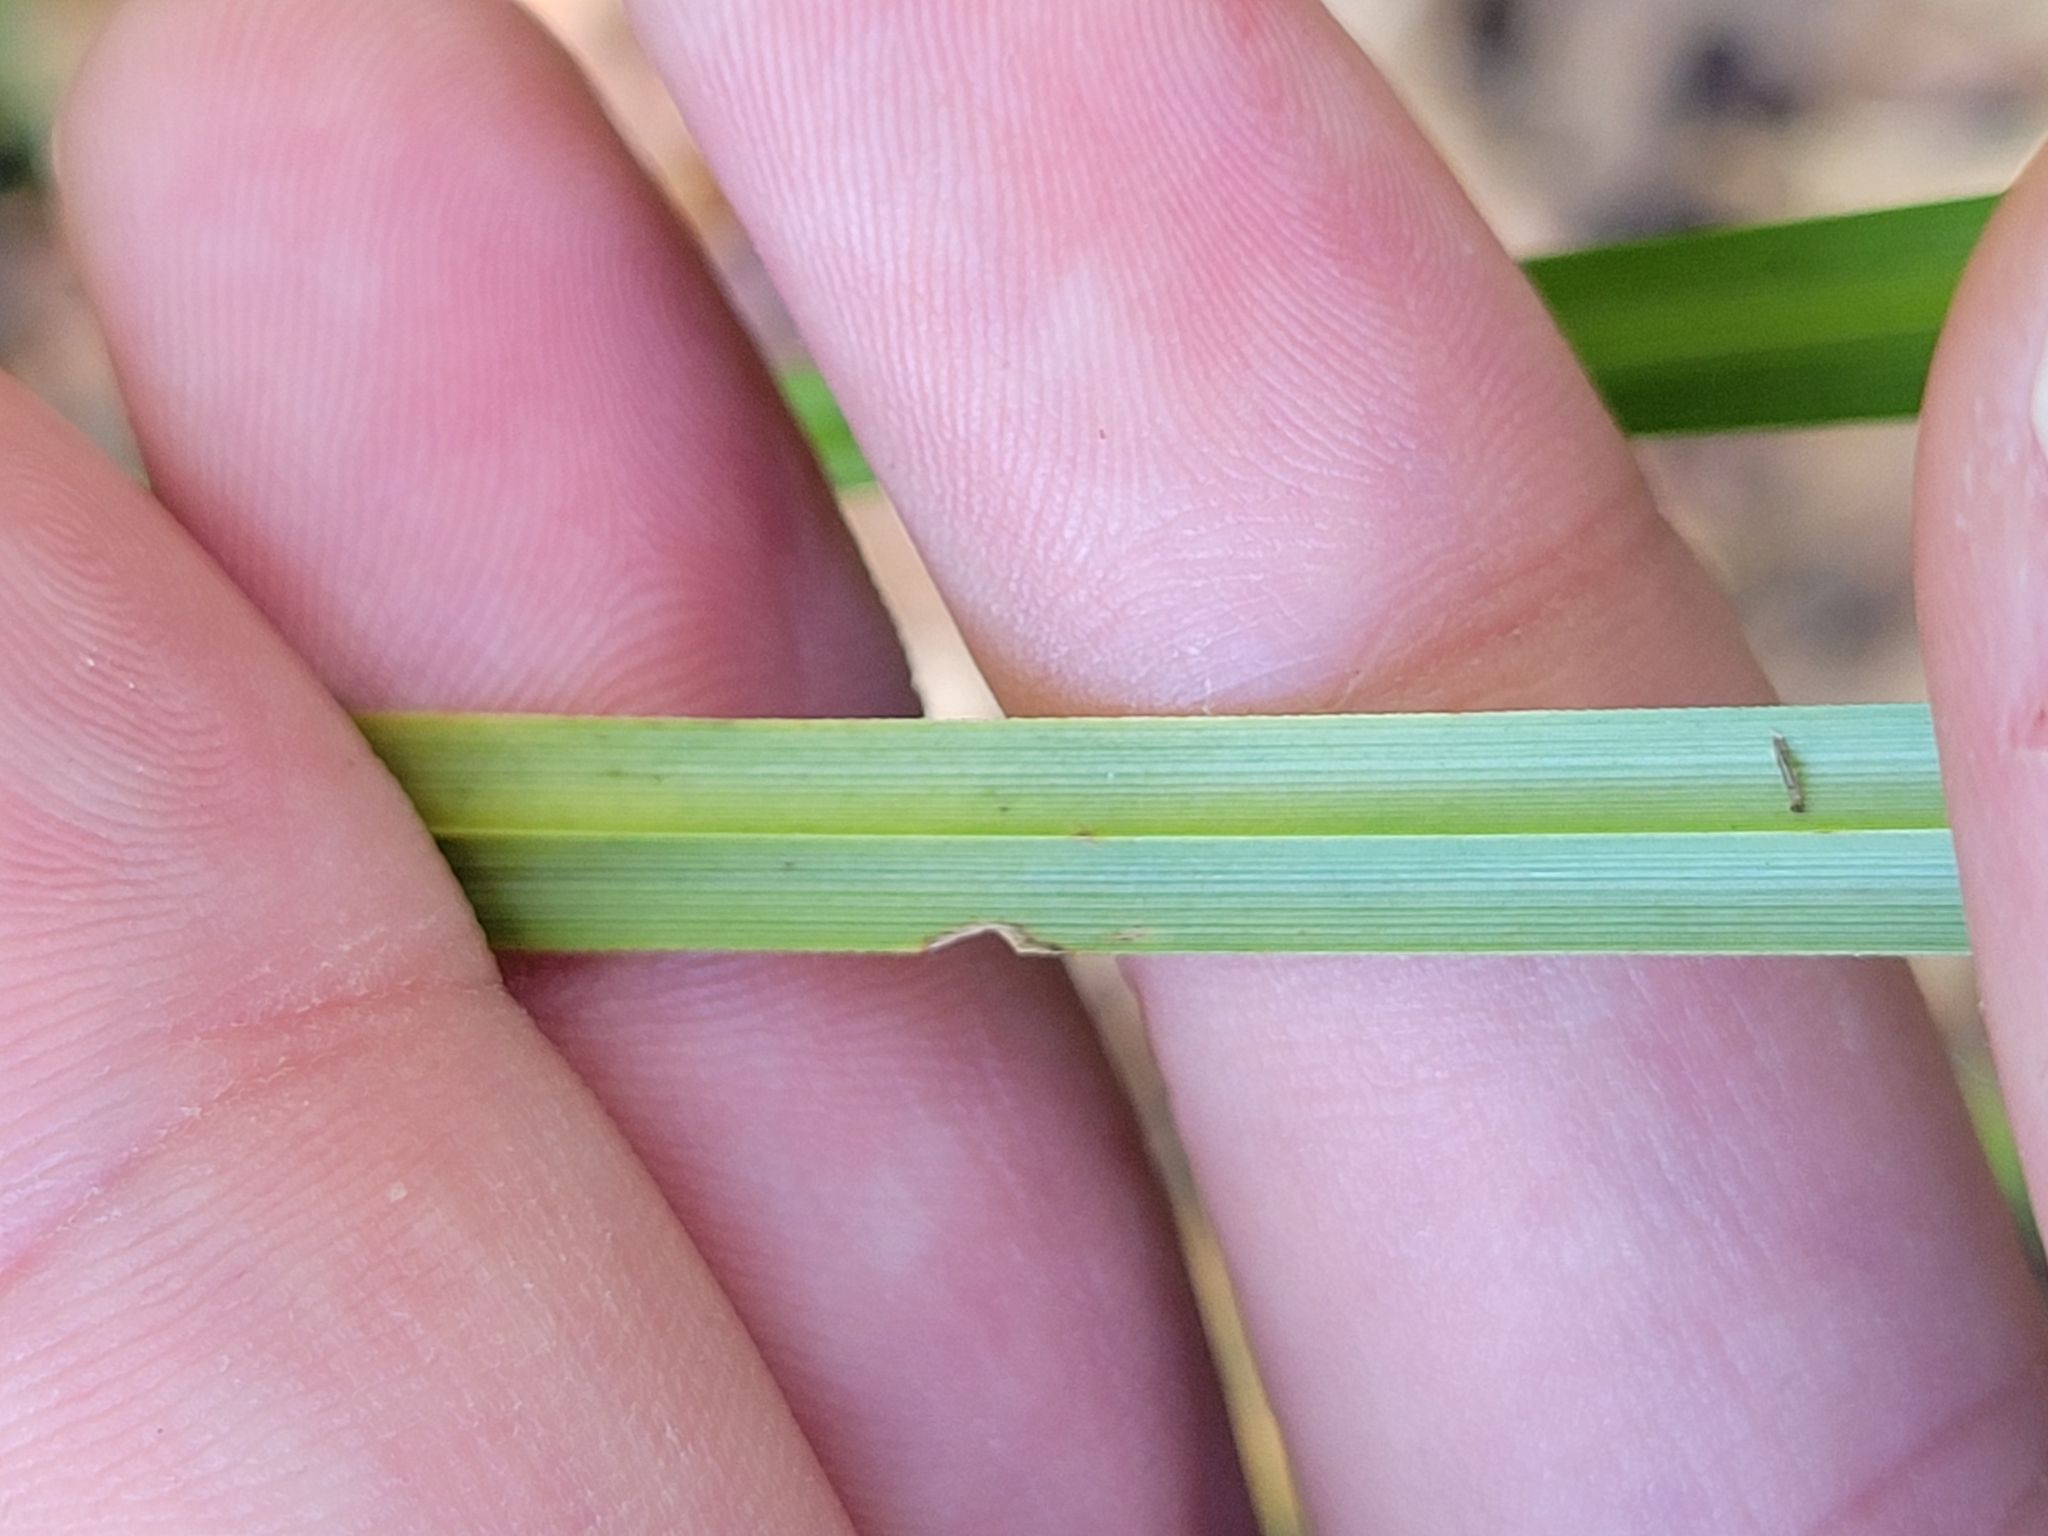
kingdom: Plantae
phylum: Tracheophyta
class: Liliopsida
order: Poales
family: Cyperaceae
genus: Cyperus
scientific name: Cyperus strigosus
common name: False nutsedge
